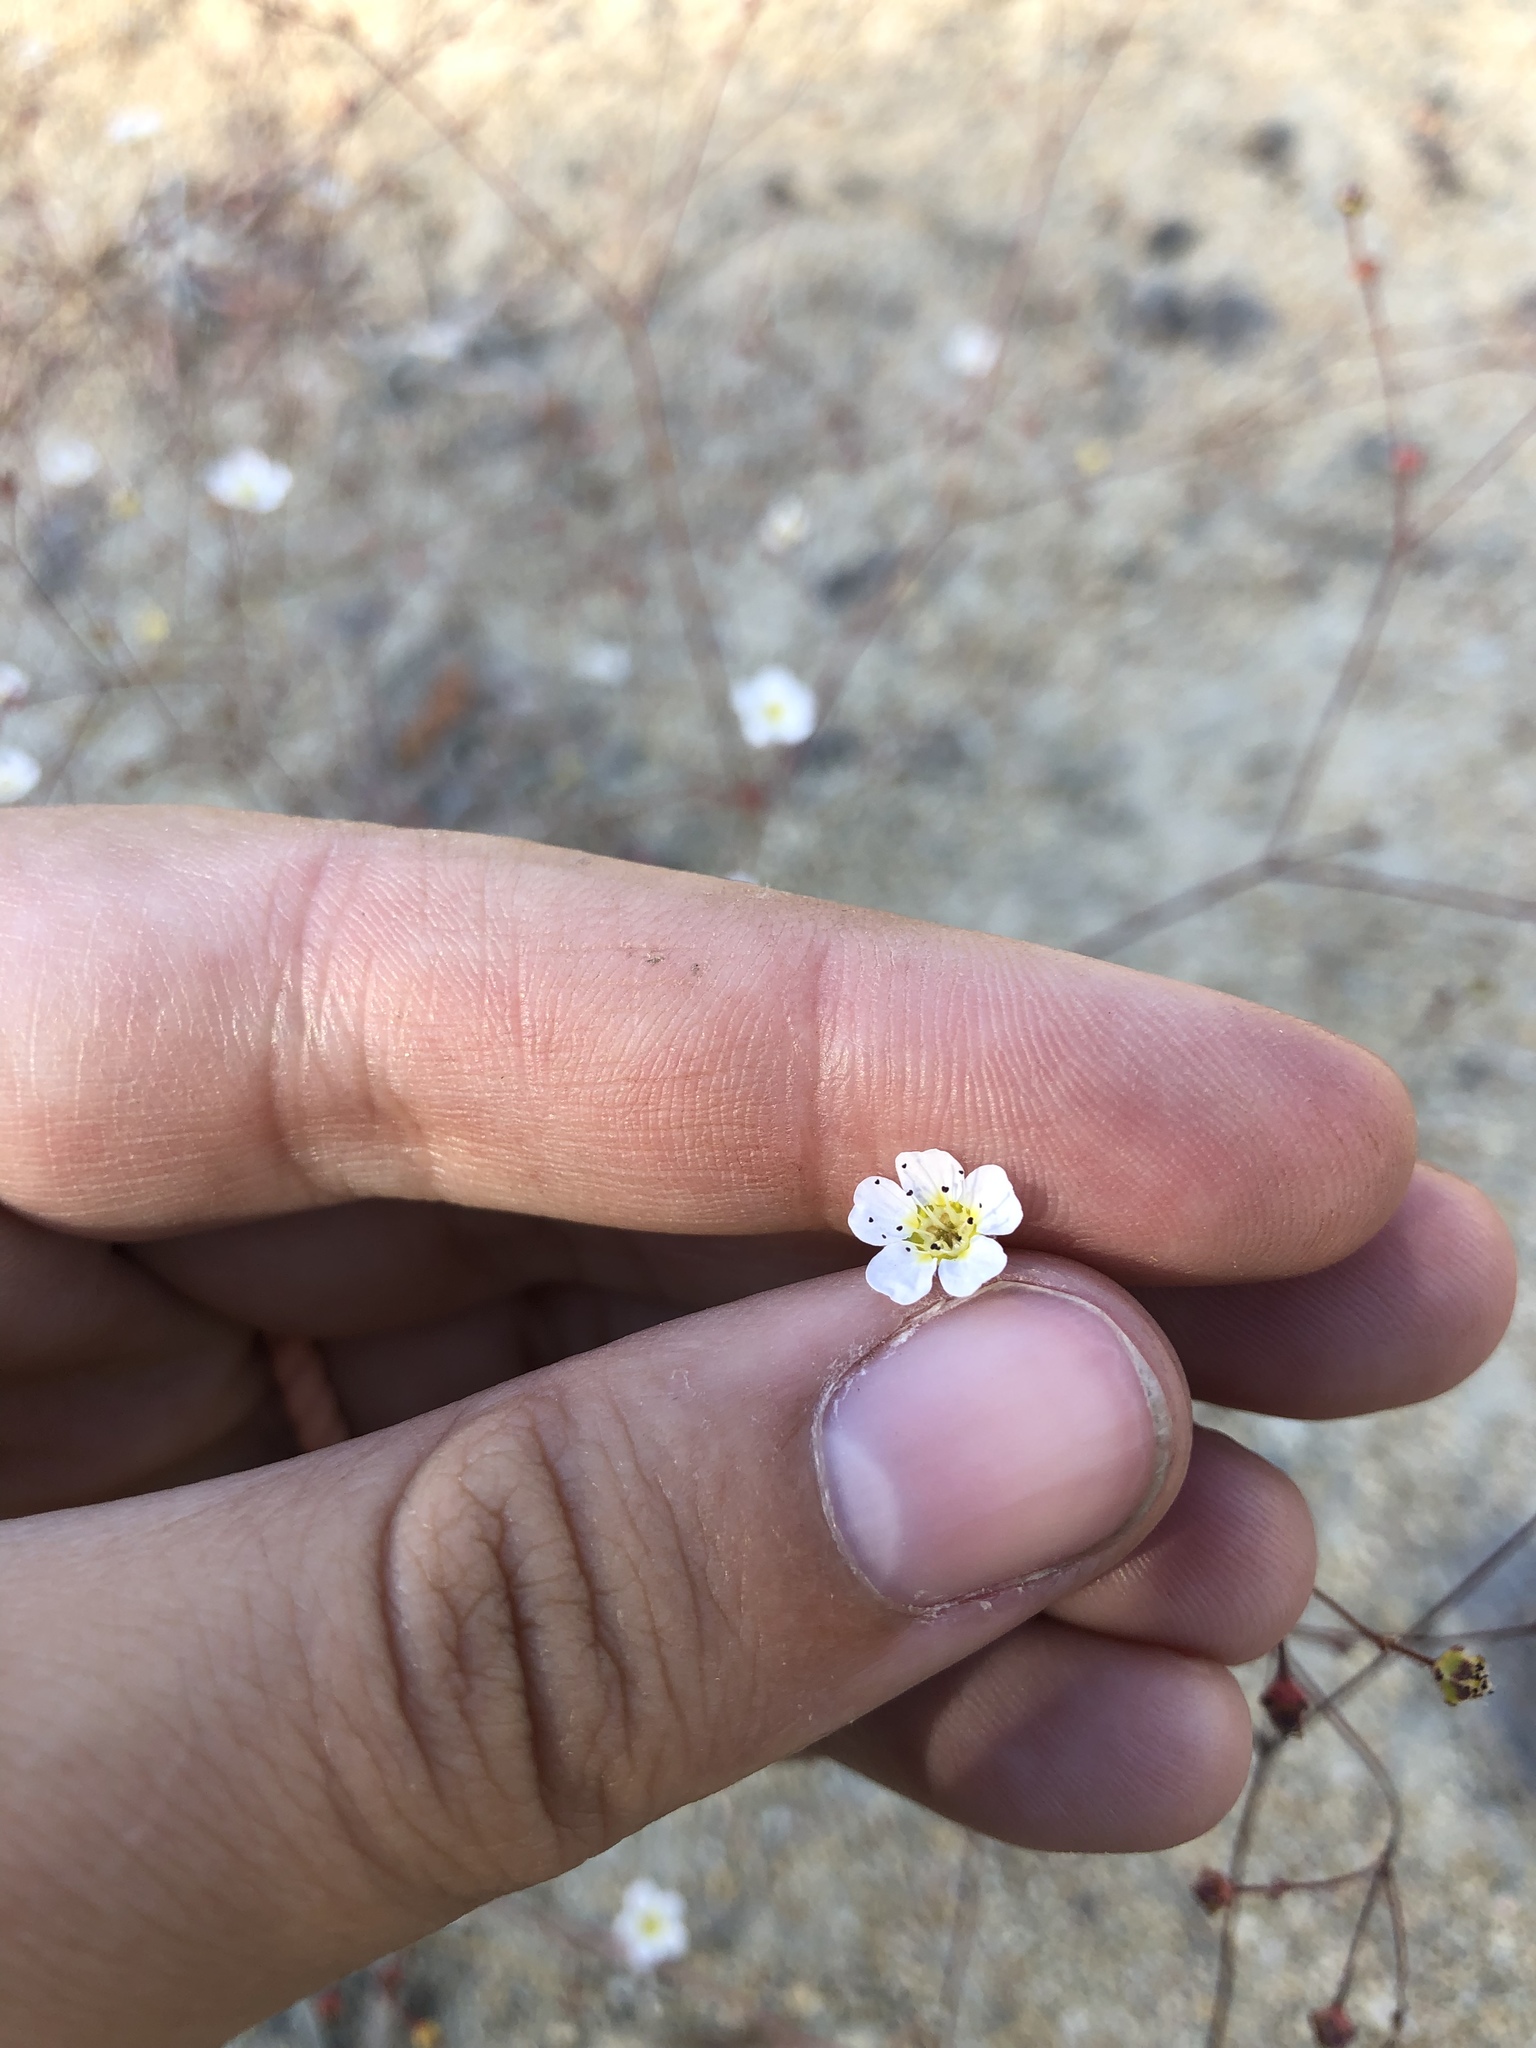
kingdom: Plantae
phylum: Tracheophyta
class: Magnoliopsida
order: Rosales
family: Rosaceae
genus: Potentilla
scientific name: Potentilla santolinoides
